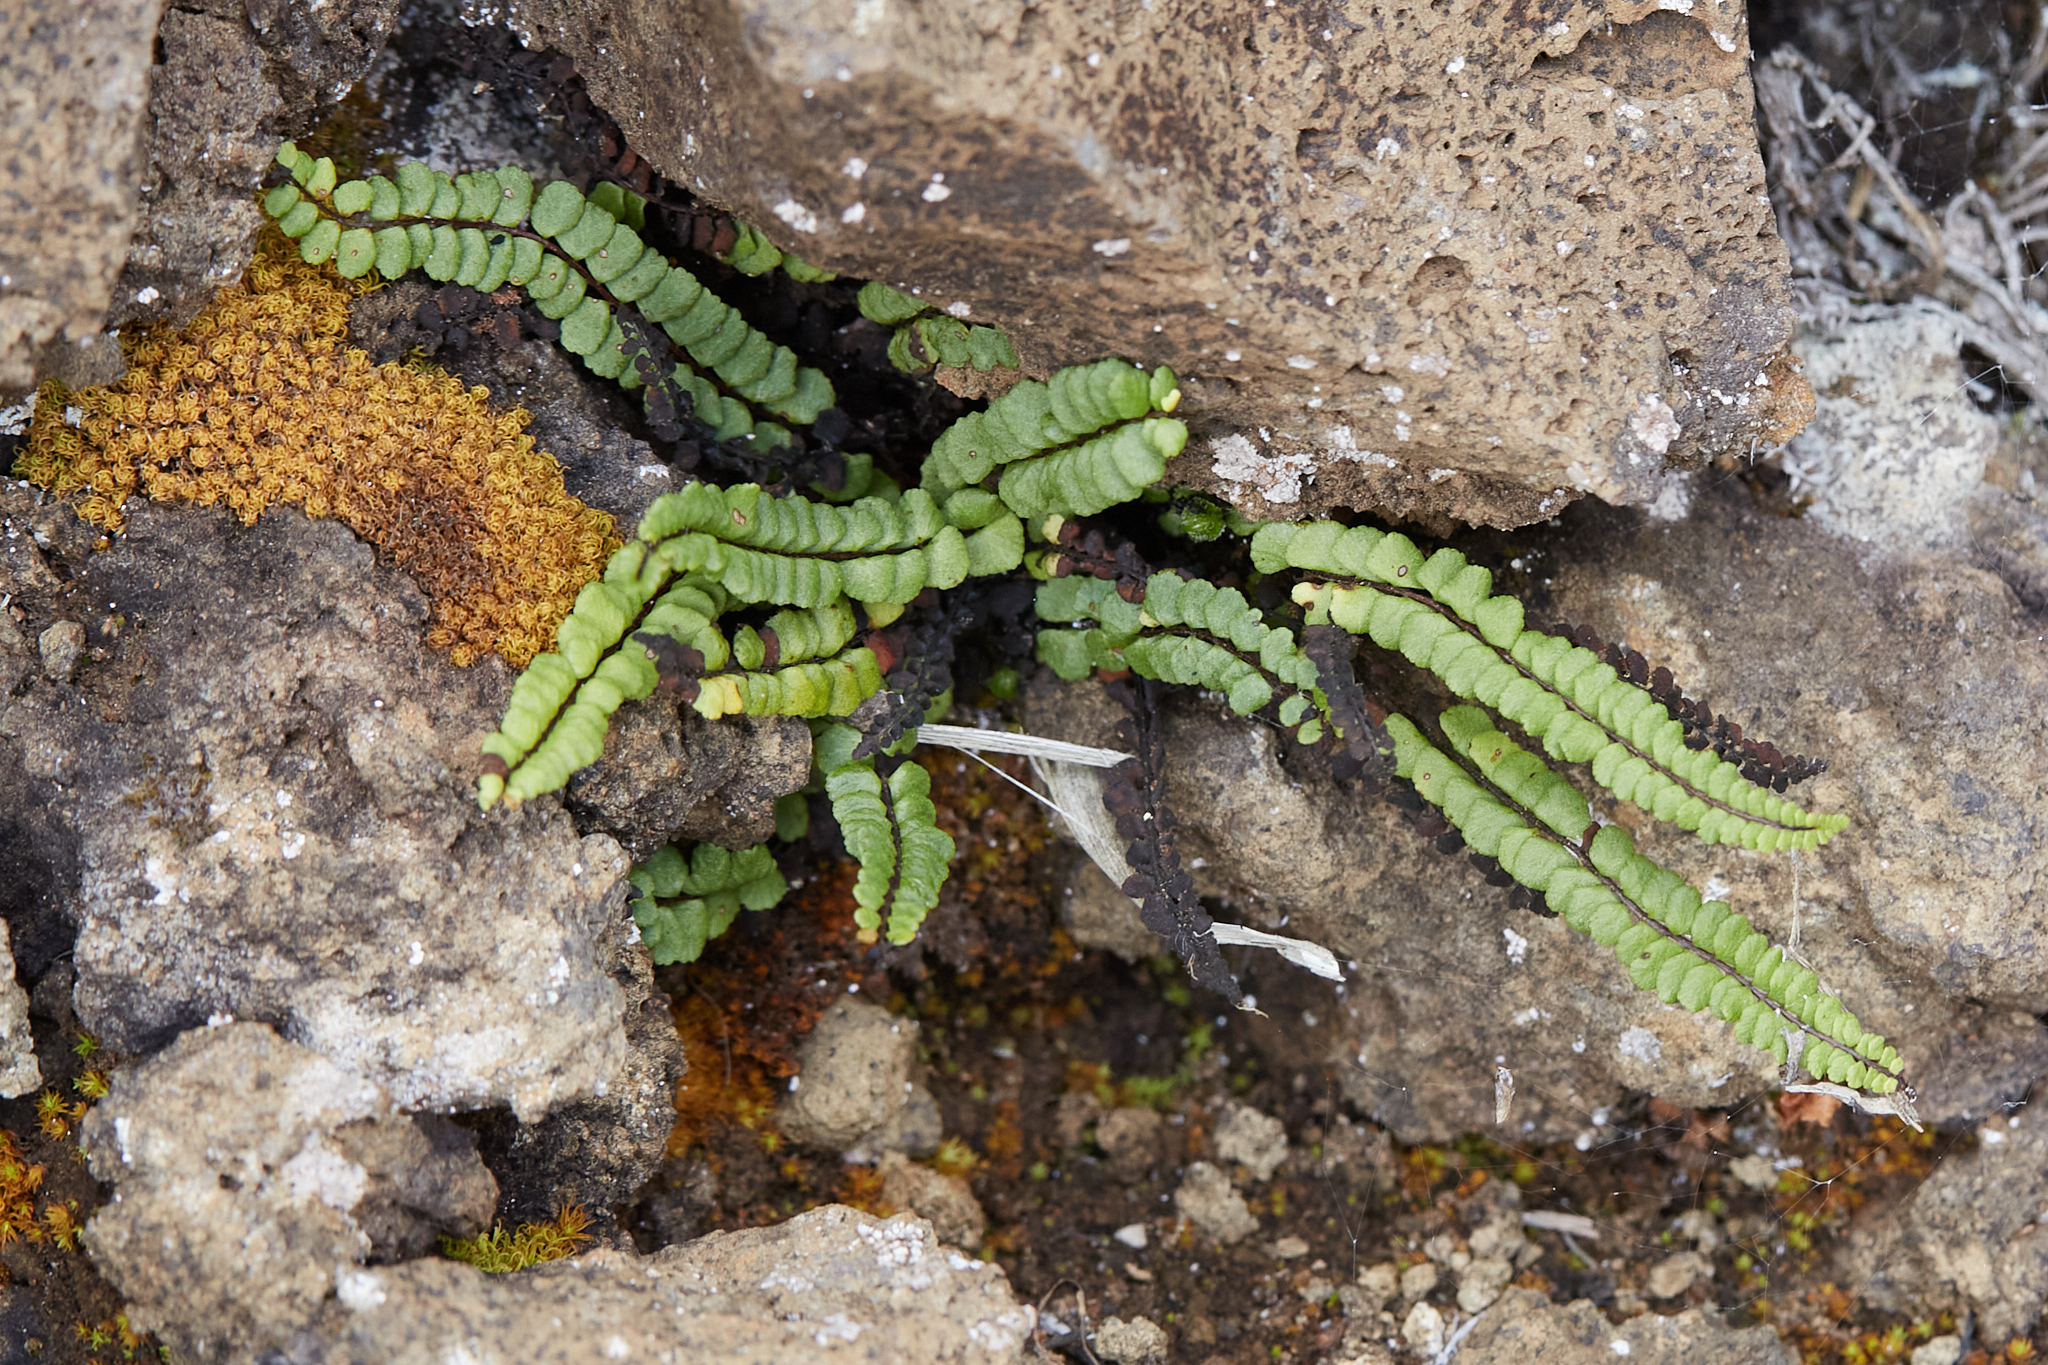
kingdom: Plantae
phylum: Tracheophyta
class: Polypodiopsida
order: Polypodiales
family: Aspleniaceae
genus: Asplenium
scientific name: Asplenium trichomanes
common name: Maidenhair spleenwort
